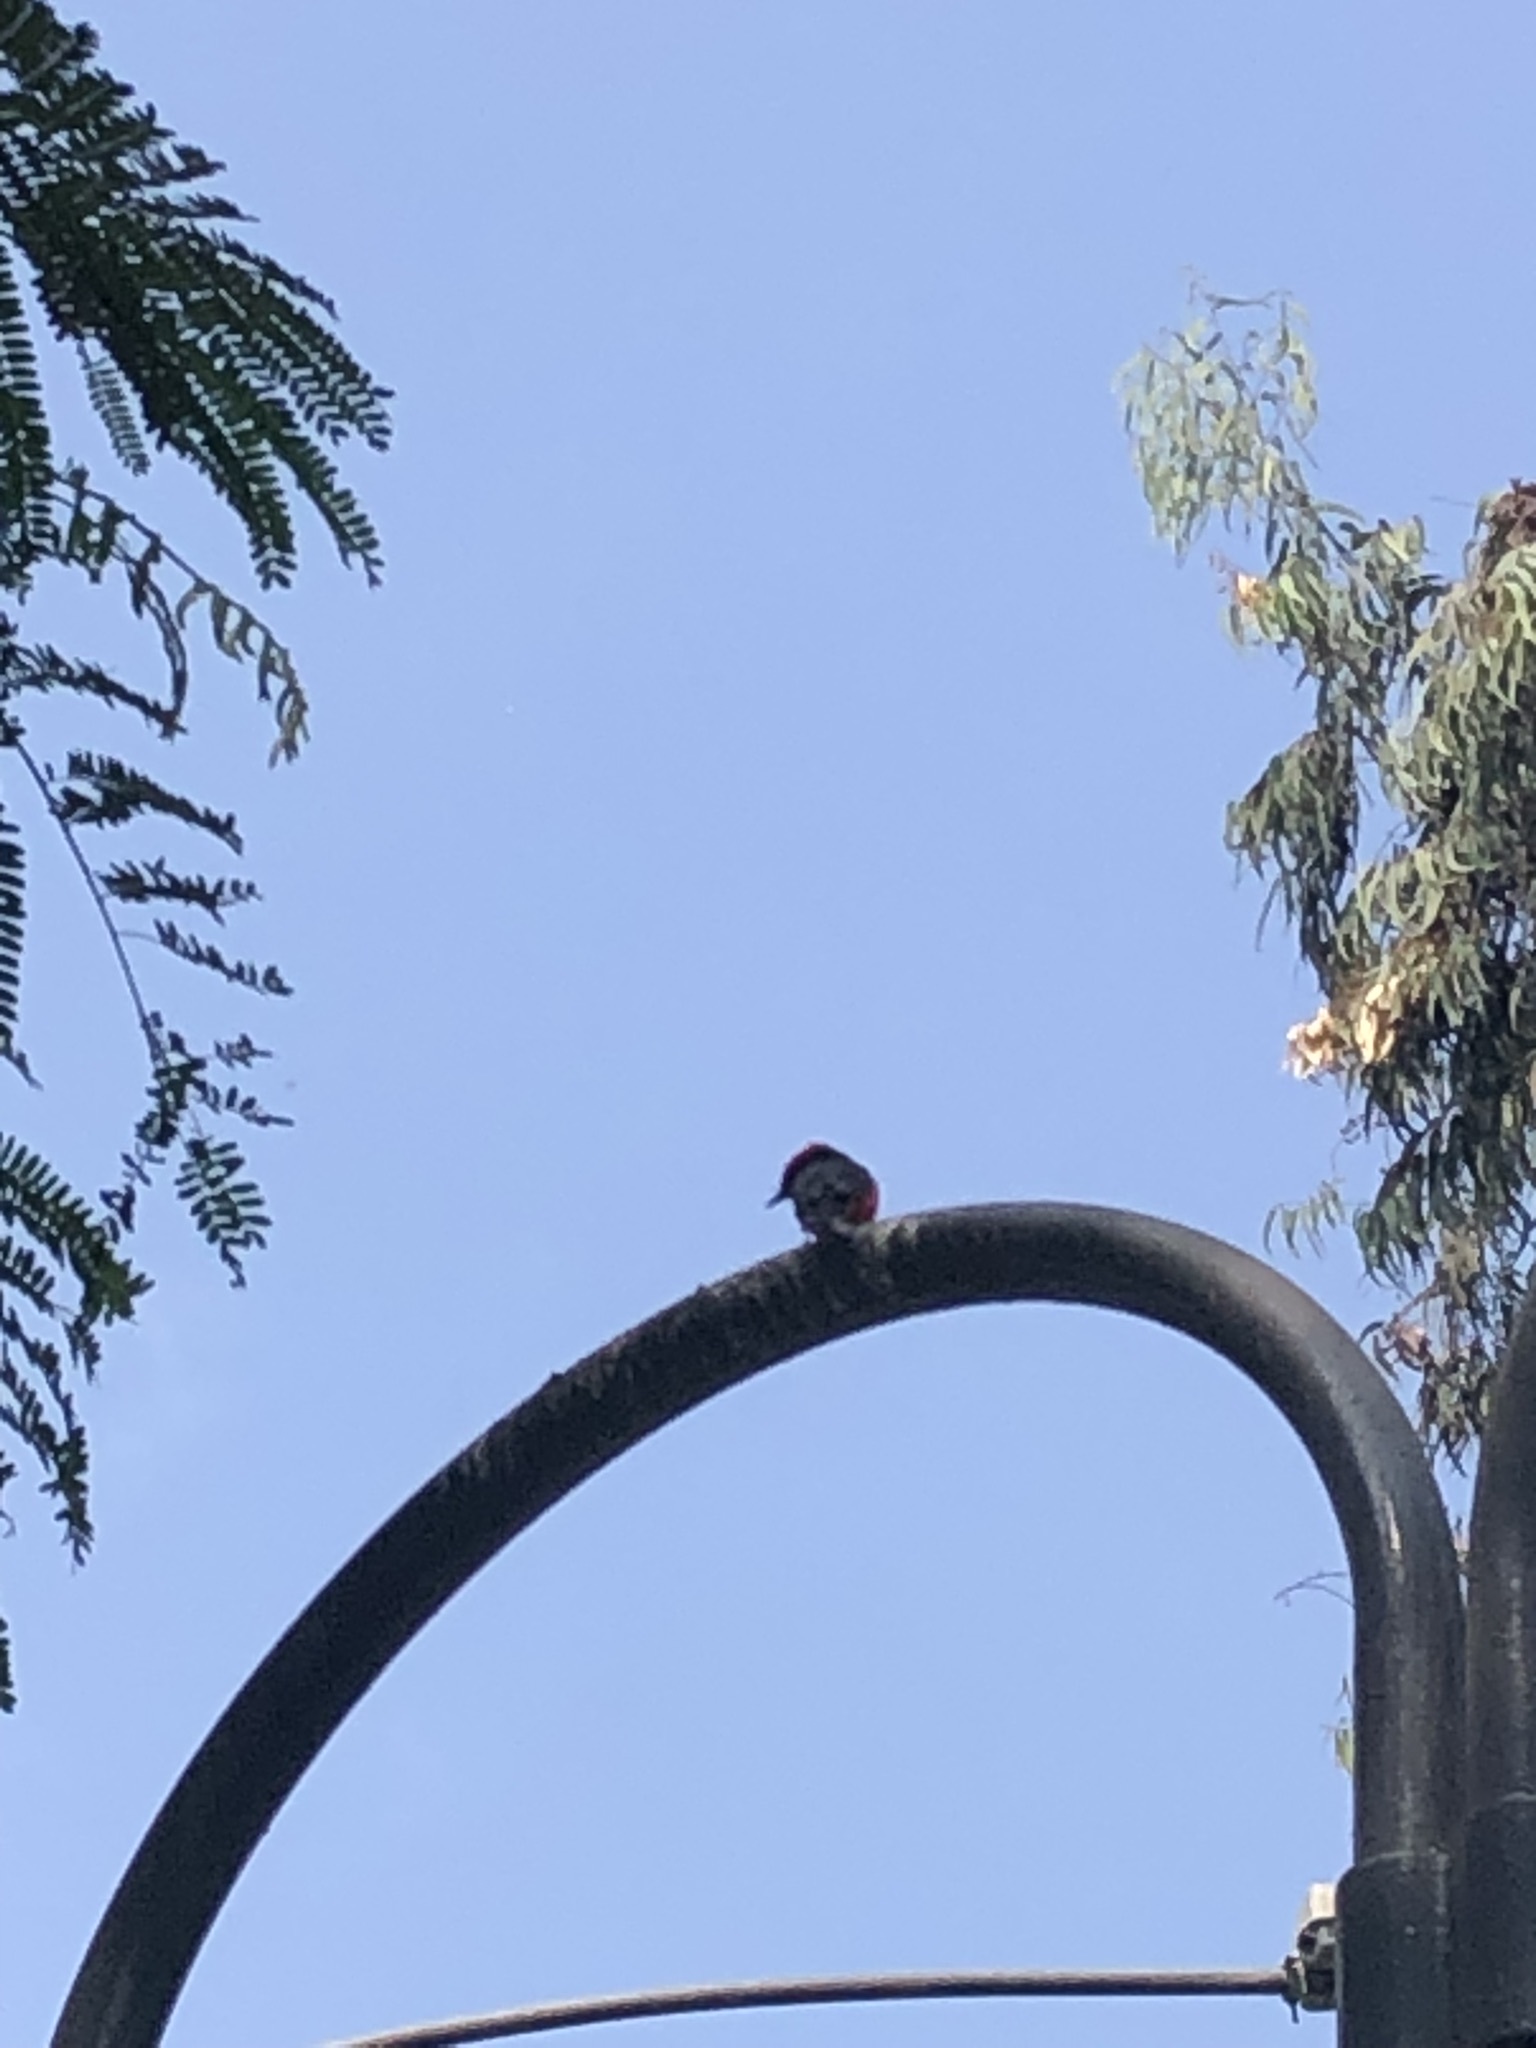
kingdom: Animalia
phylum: Chordata
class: Aves
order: Passeriformes
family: Tyrannidae
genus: Pyrocephalus
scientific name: Pyrocephalus rubinus
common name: Vermilion flycatcher
